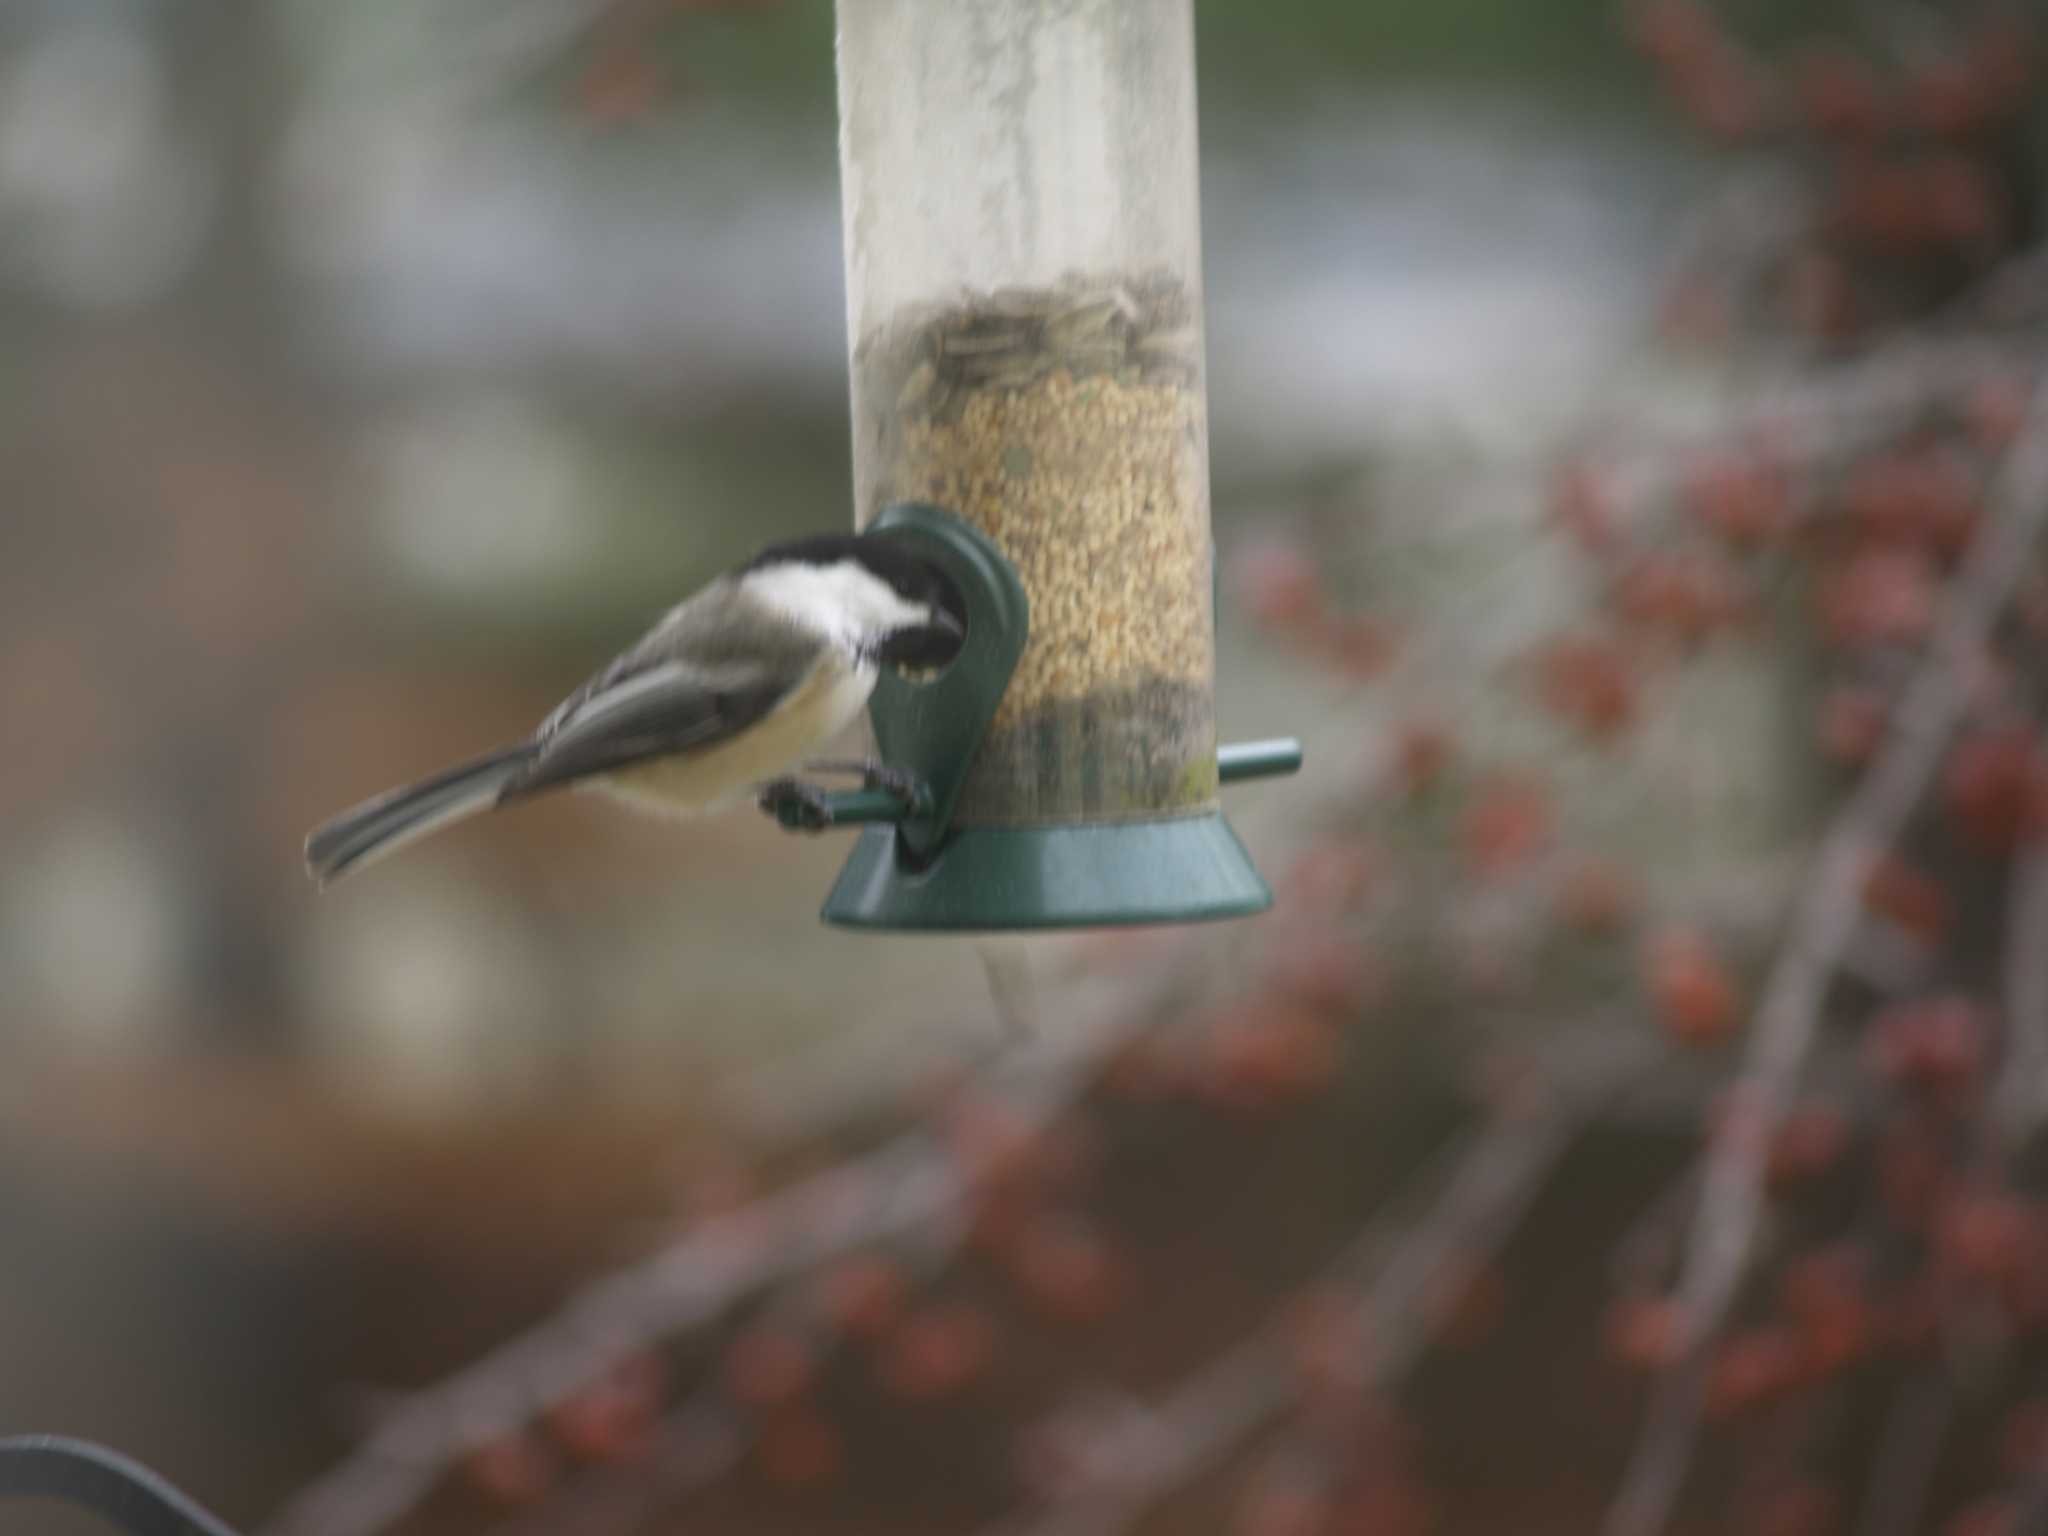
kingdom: Animalia
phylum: Chordata
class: Aves
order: Passeriformes
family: Paridae
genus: Poecile
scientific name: Poecile atricapillus
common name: Black-capped chickadee
